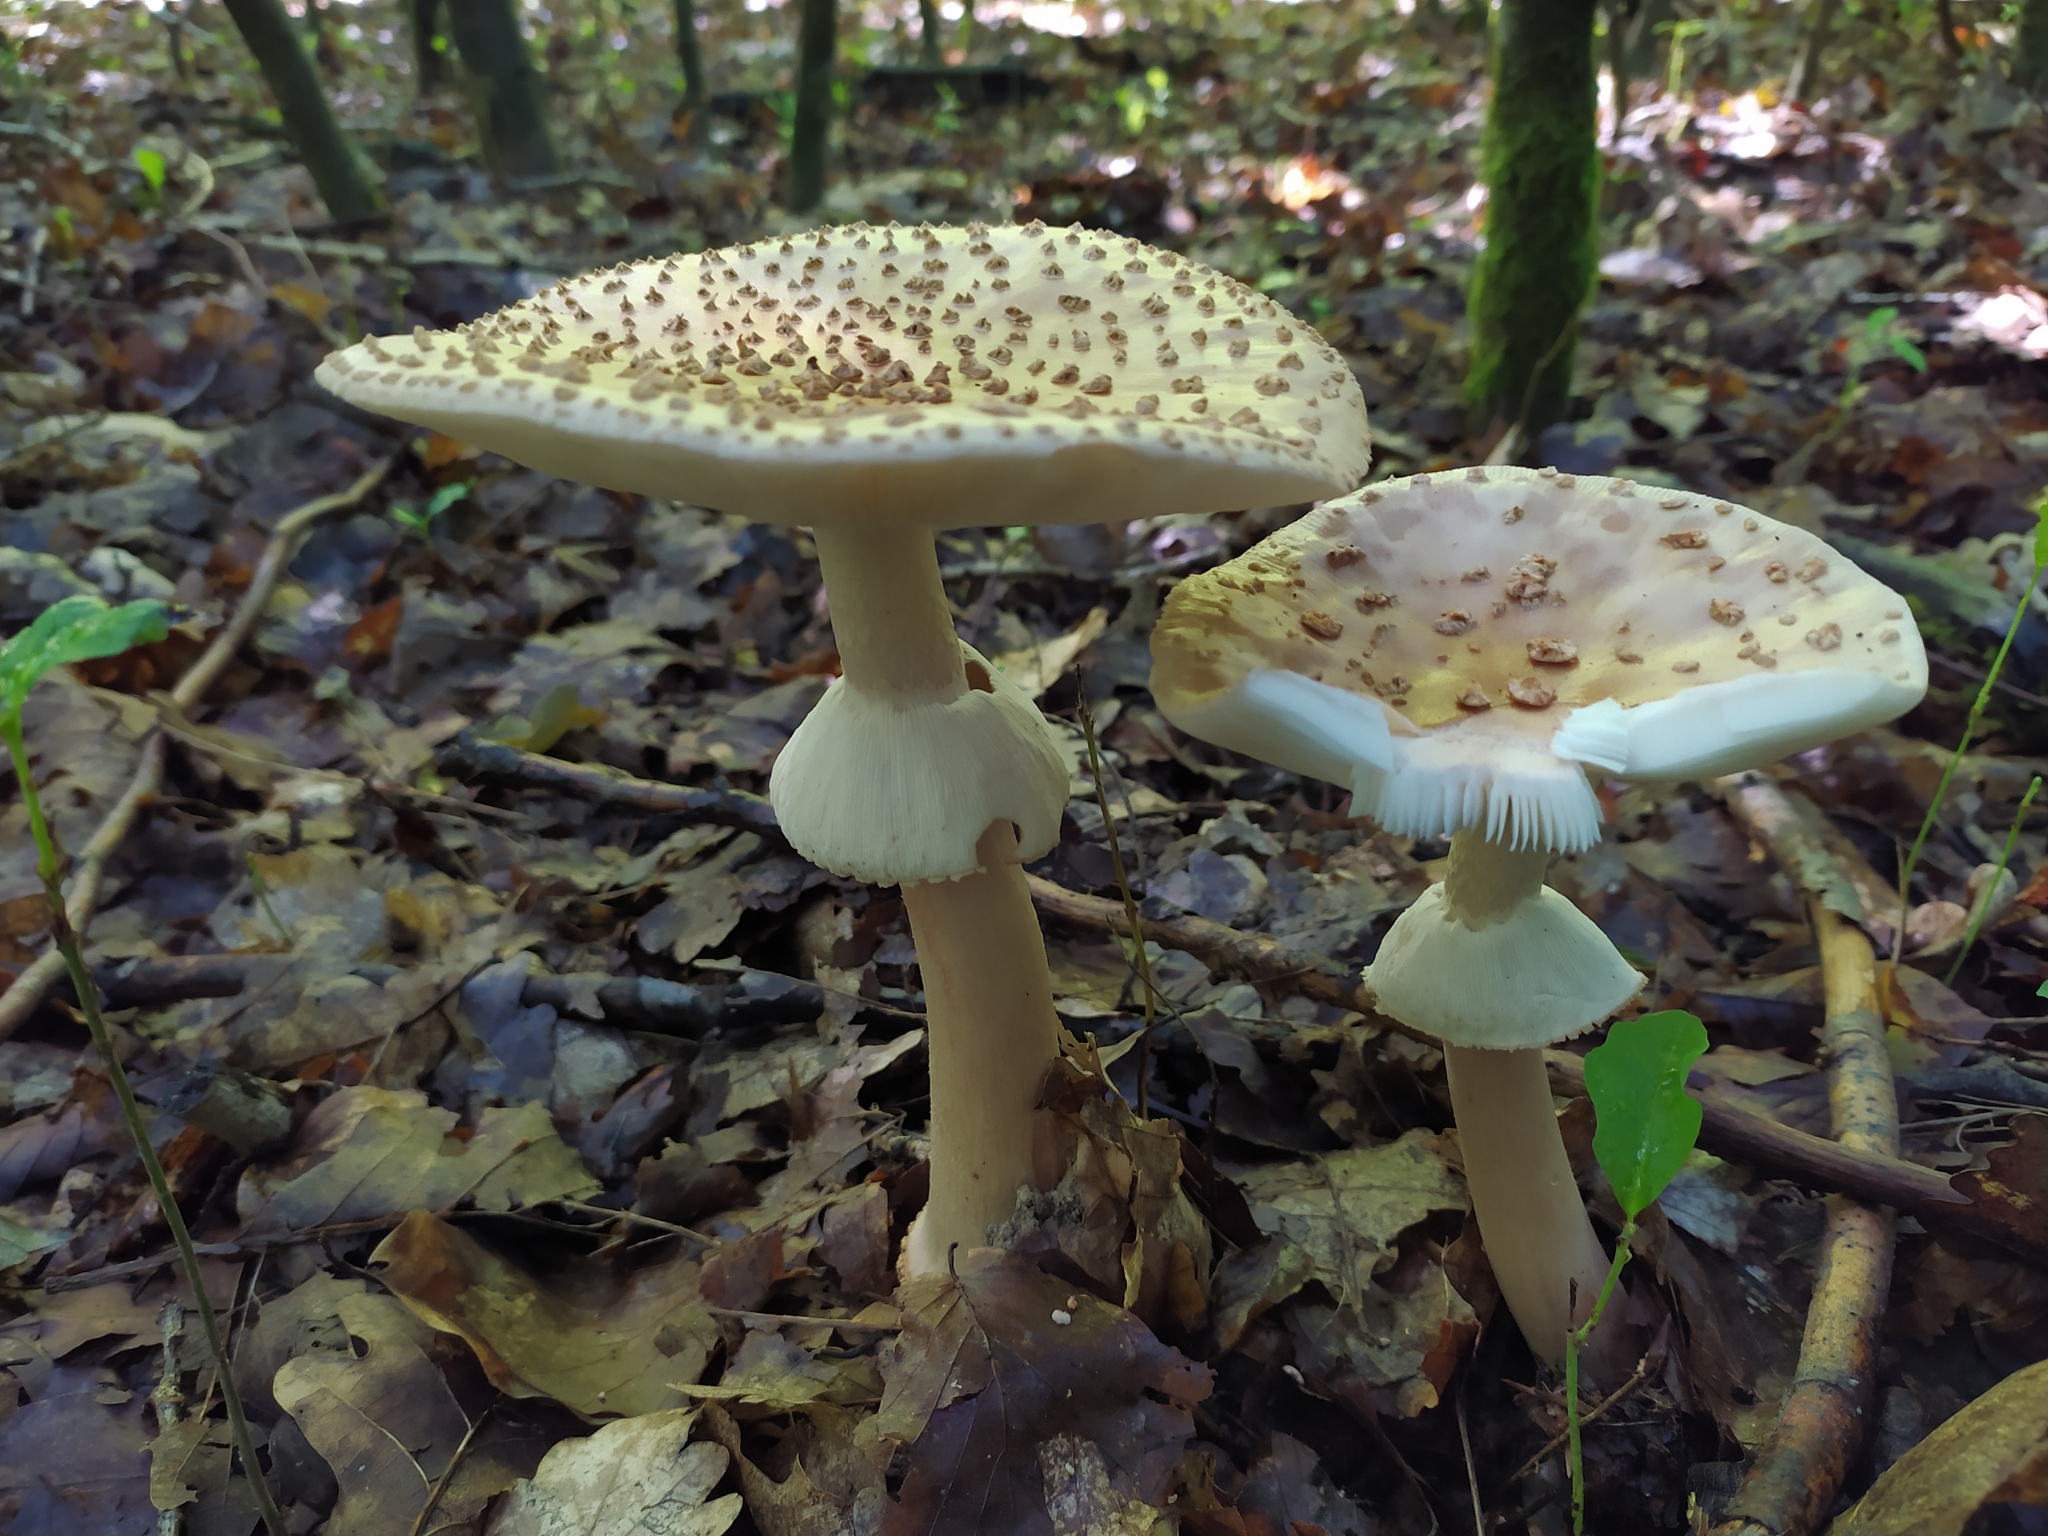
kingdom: Fungi
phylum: Basidiomycota
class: Agaricomycetes
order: Agaricales
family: Amanitaceae
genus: Amanita
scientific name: Amanita rubescens
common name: Blusher
